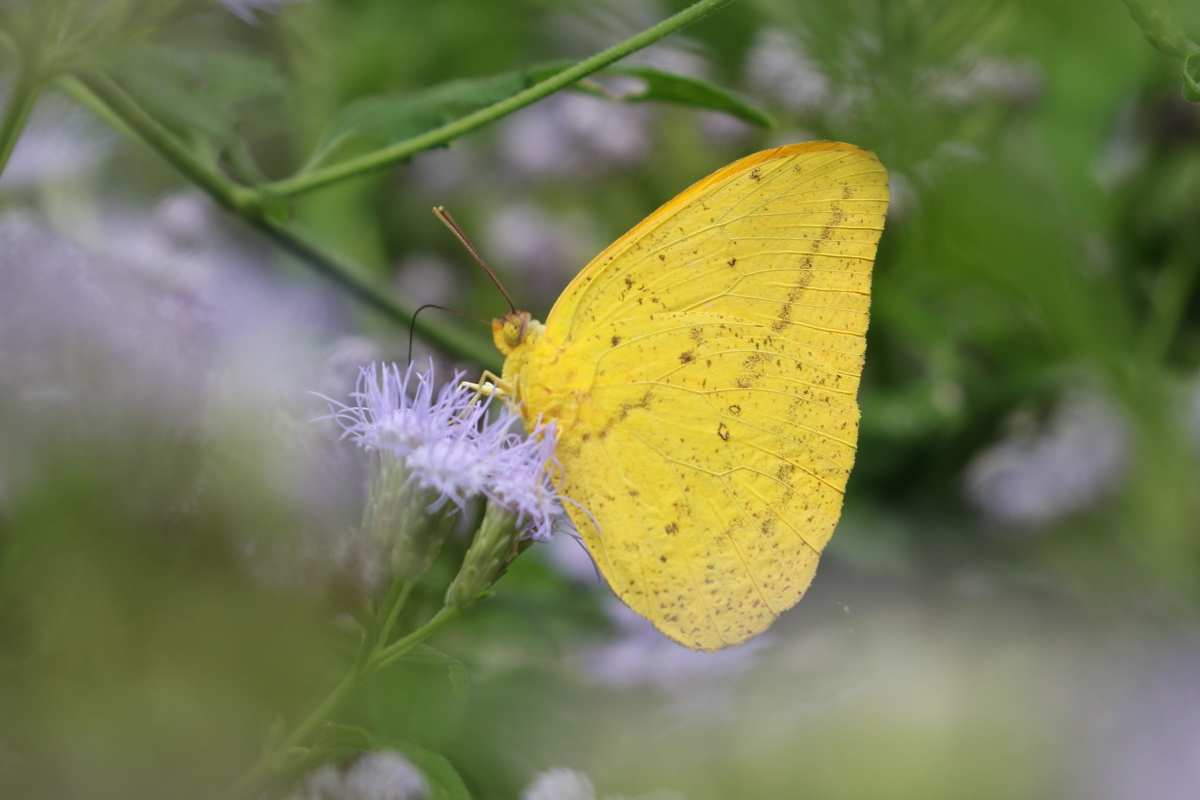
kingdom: Animalia
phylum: Arthropoda
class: Insecta
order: Lepidoptera
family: Pieridae
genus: Phoebis
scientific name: Phoebis agarithe
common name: Large orange sulphur
